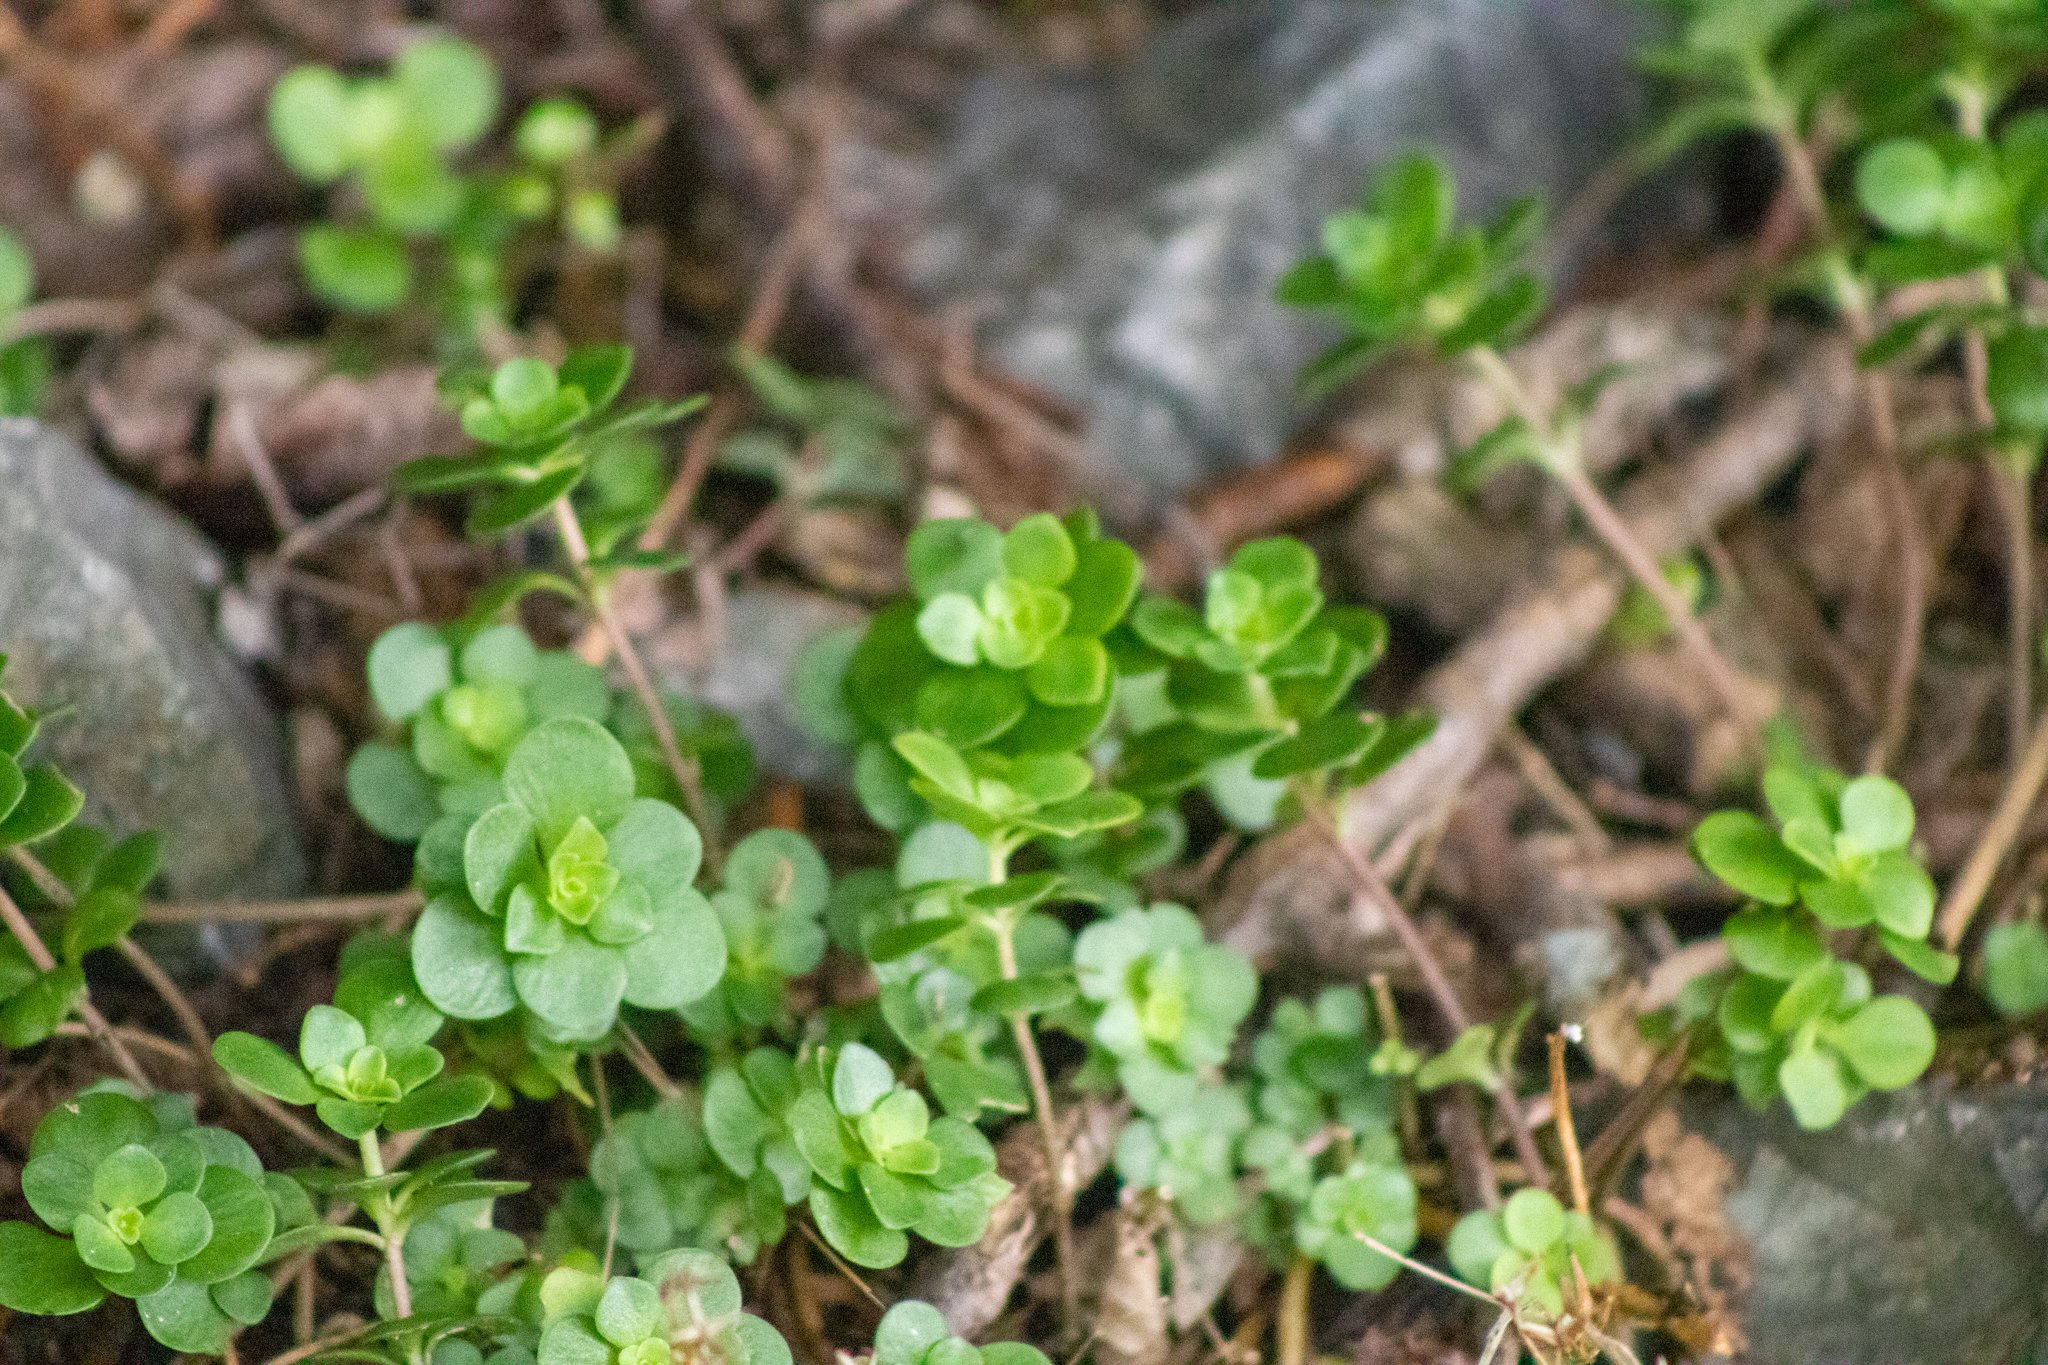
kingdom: Plantae
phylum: Tracheophyta
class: Magnoliopsida
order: Saxifragales
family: Crassulaceae
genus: Sedum
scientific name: Sedum ternatum
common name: Wild stonecrop
